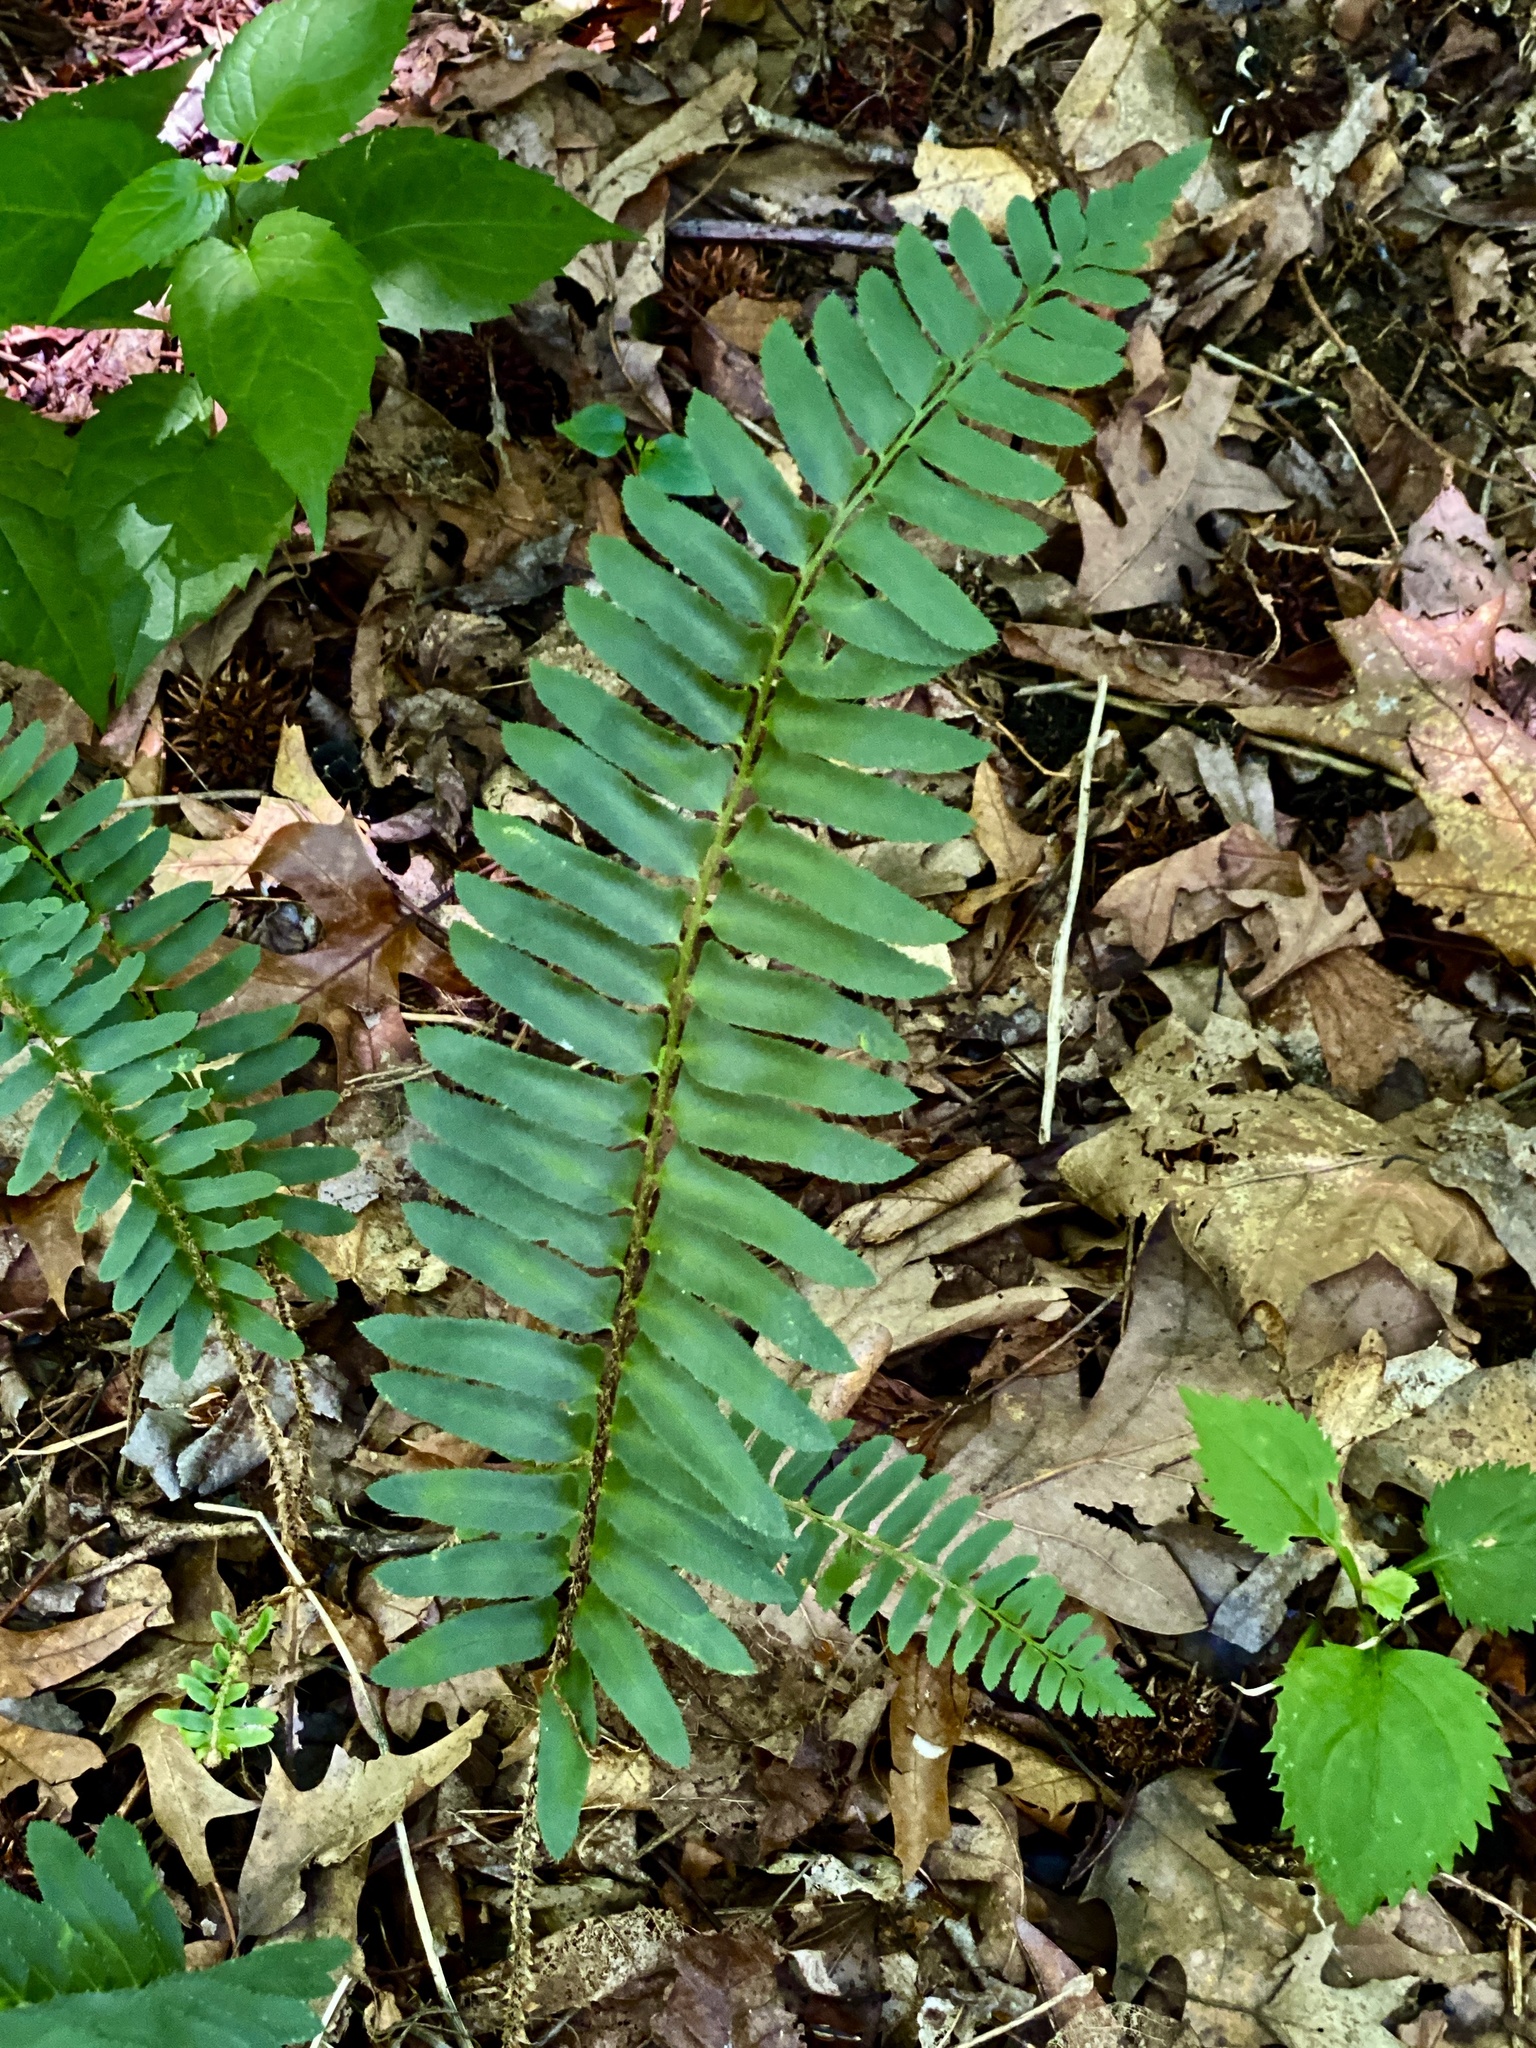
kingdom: Plantae
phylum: Tracheophyta
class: Polypodiopsida
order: Polypodiales
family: Dryopteridaceae
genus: Polystichum
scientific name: Polystichum acrostichoides
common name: Christmas fern
